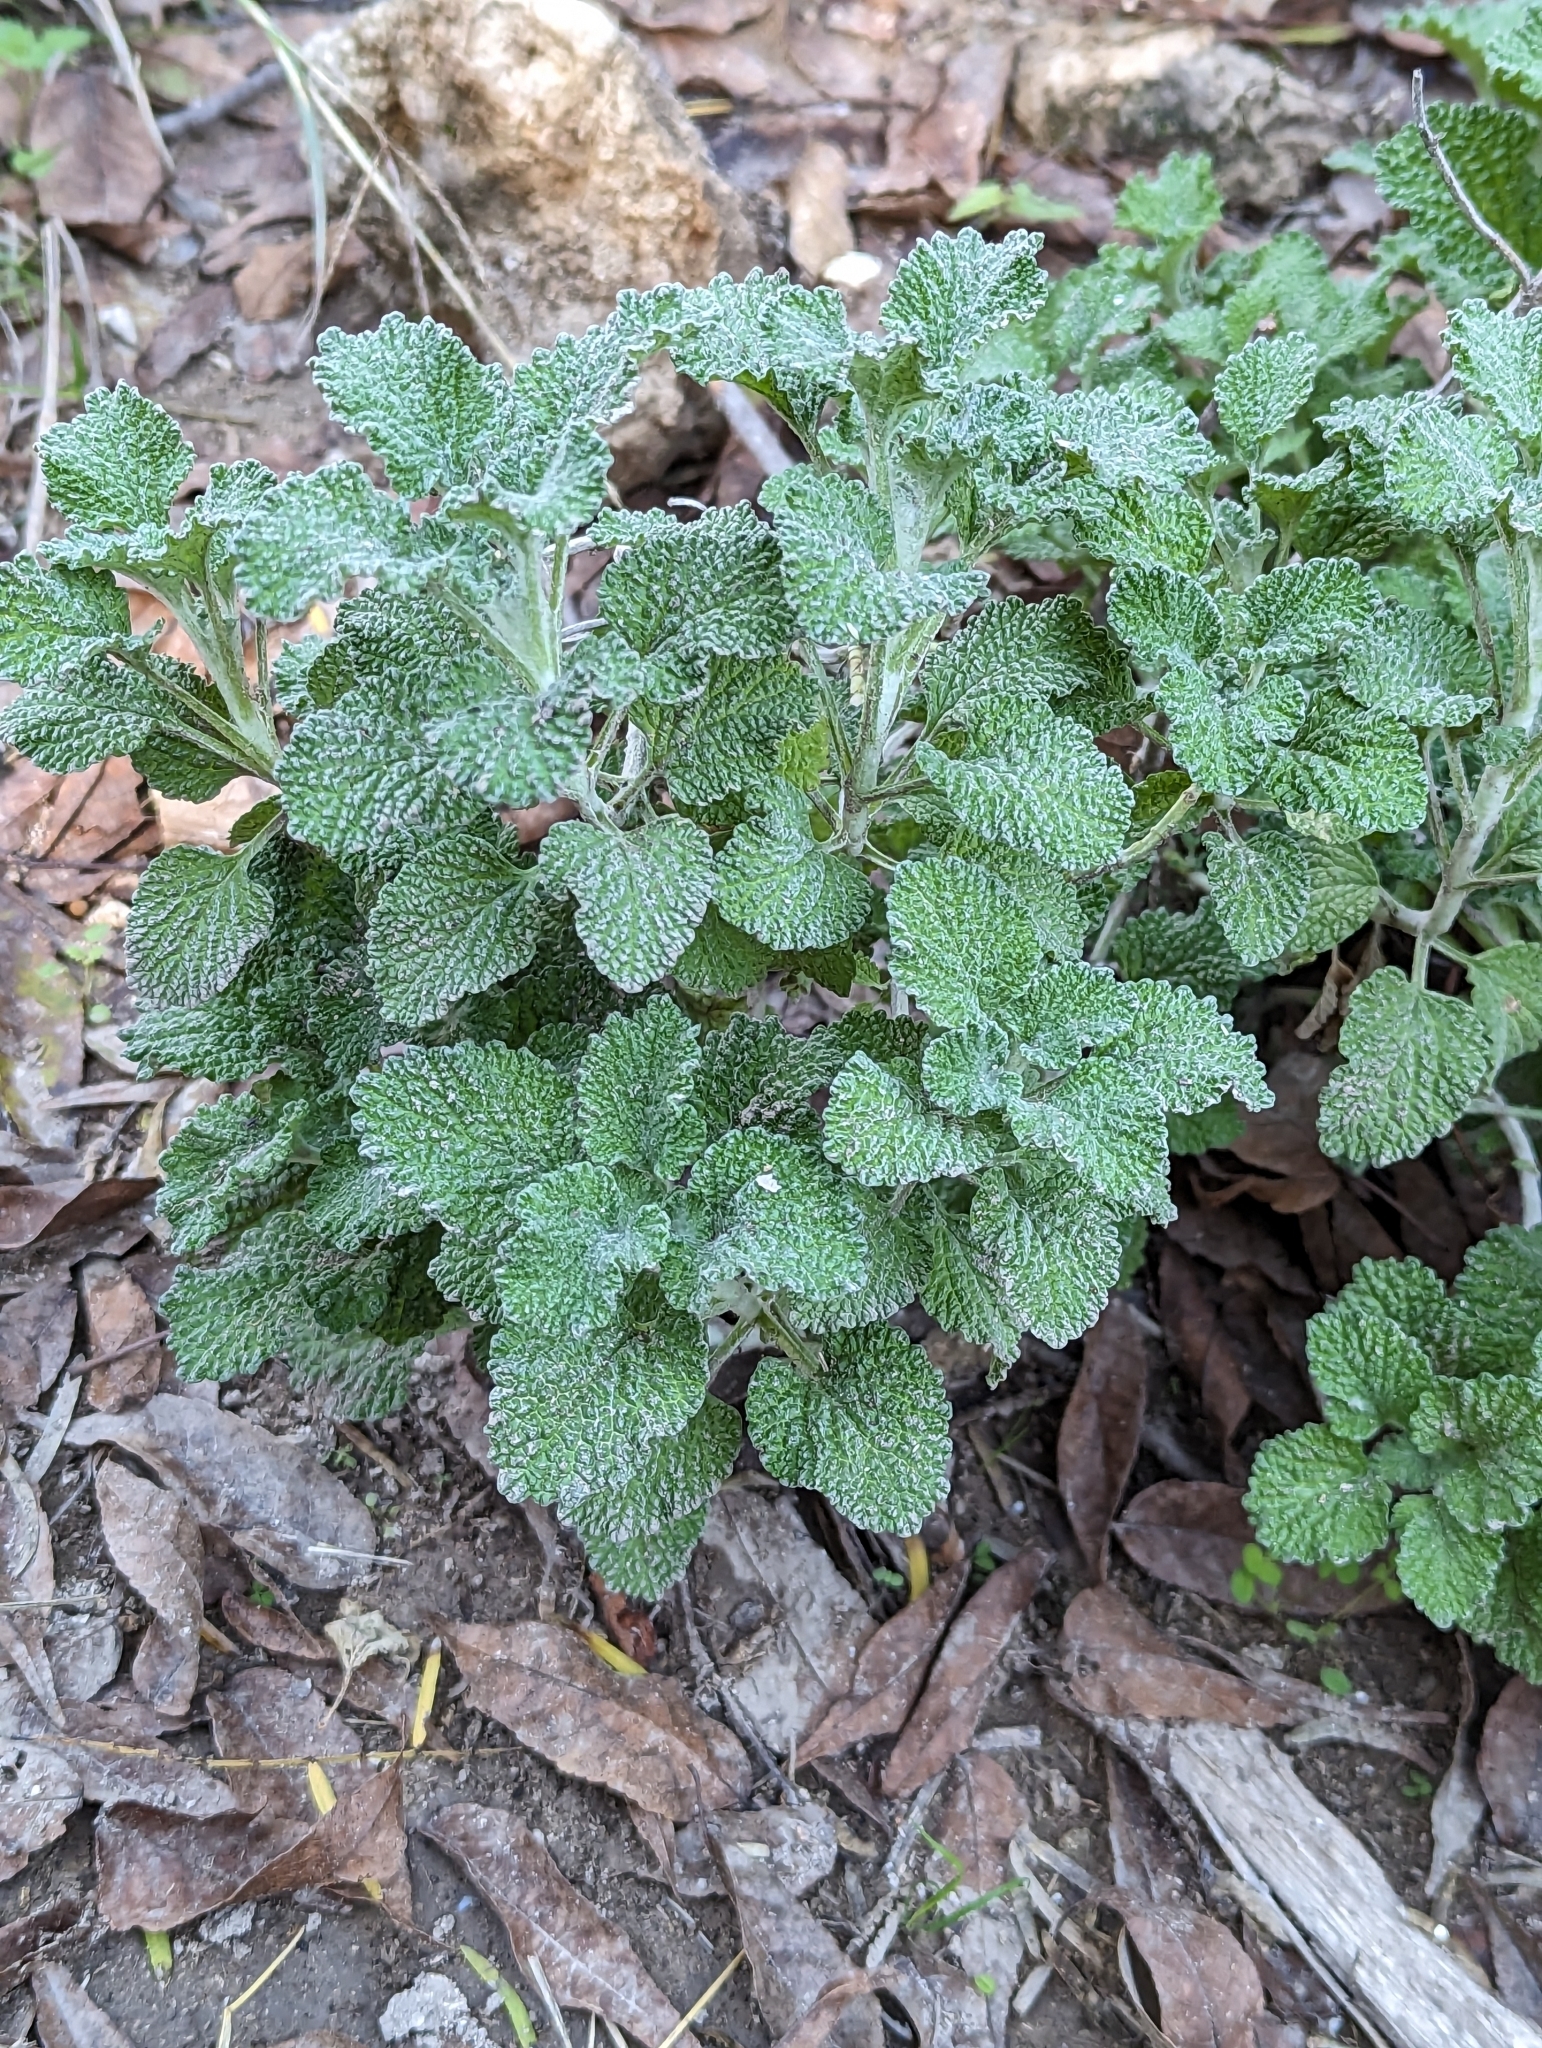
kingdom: Plantae
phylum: Tracheophyta
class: Magnoliopsida
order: Lamiales
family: Lamiaceae
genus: Marrubium
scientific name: Marrubium vulgare
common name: Horehound
